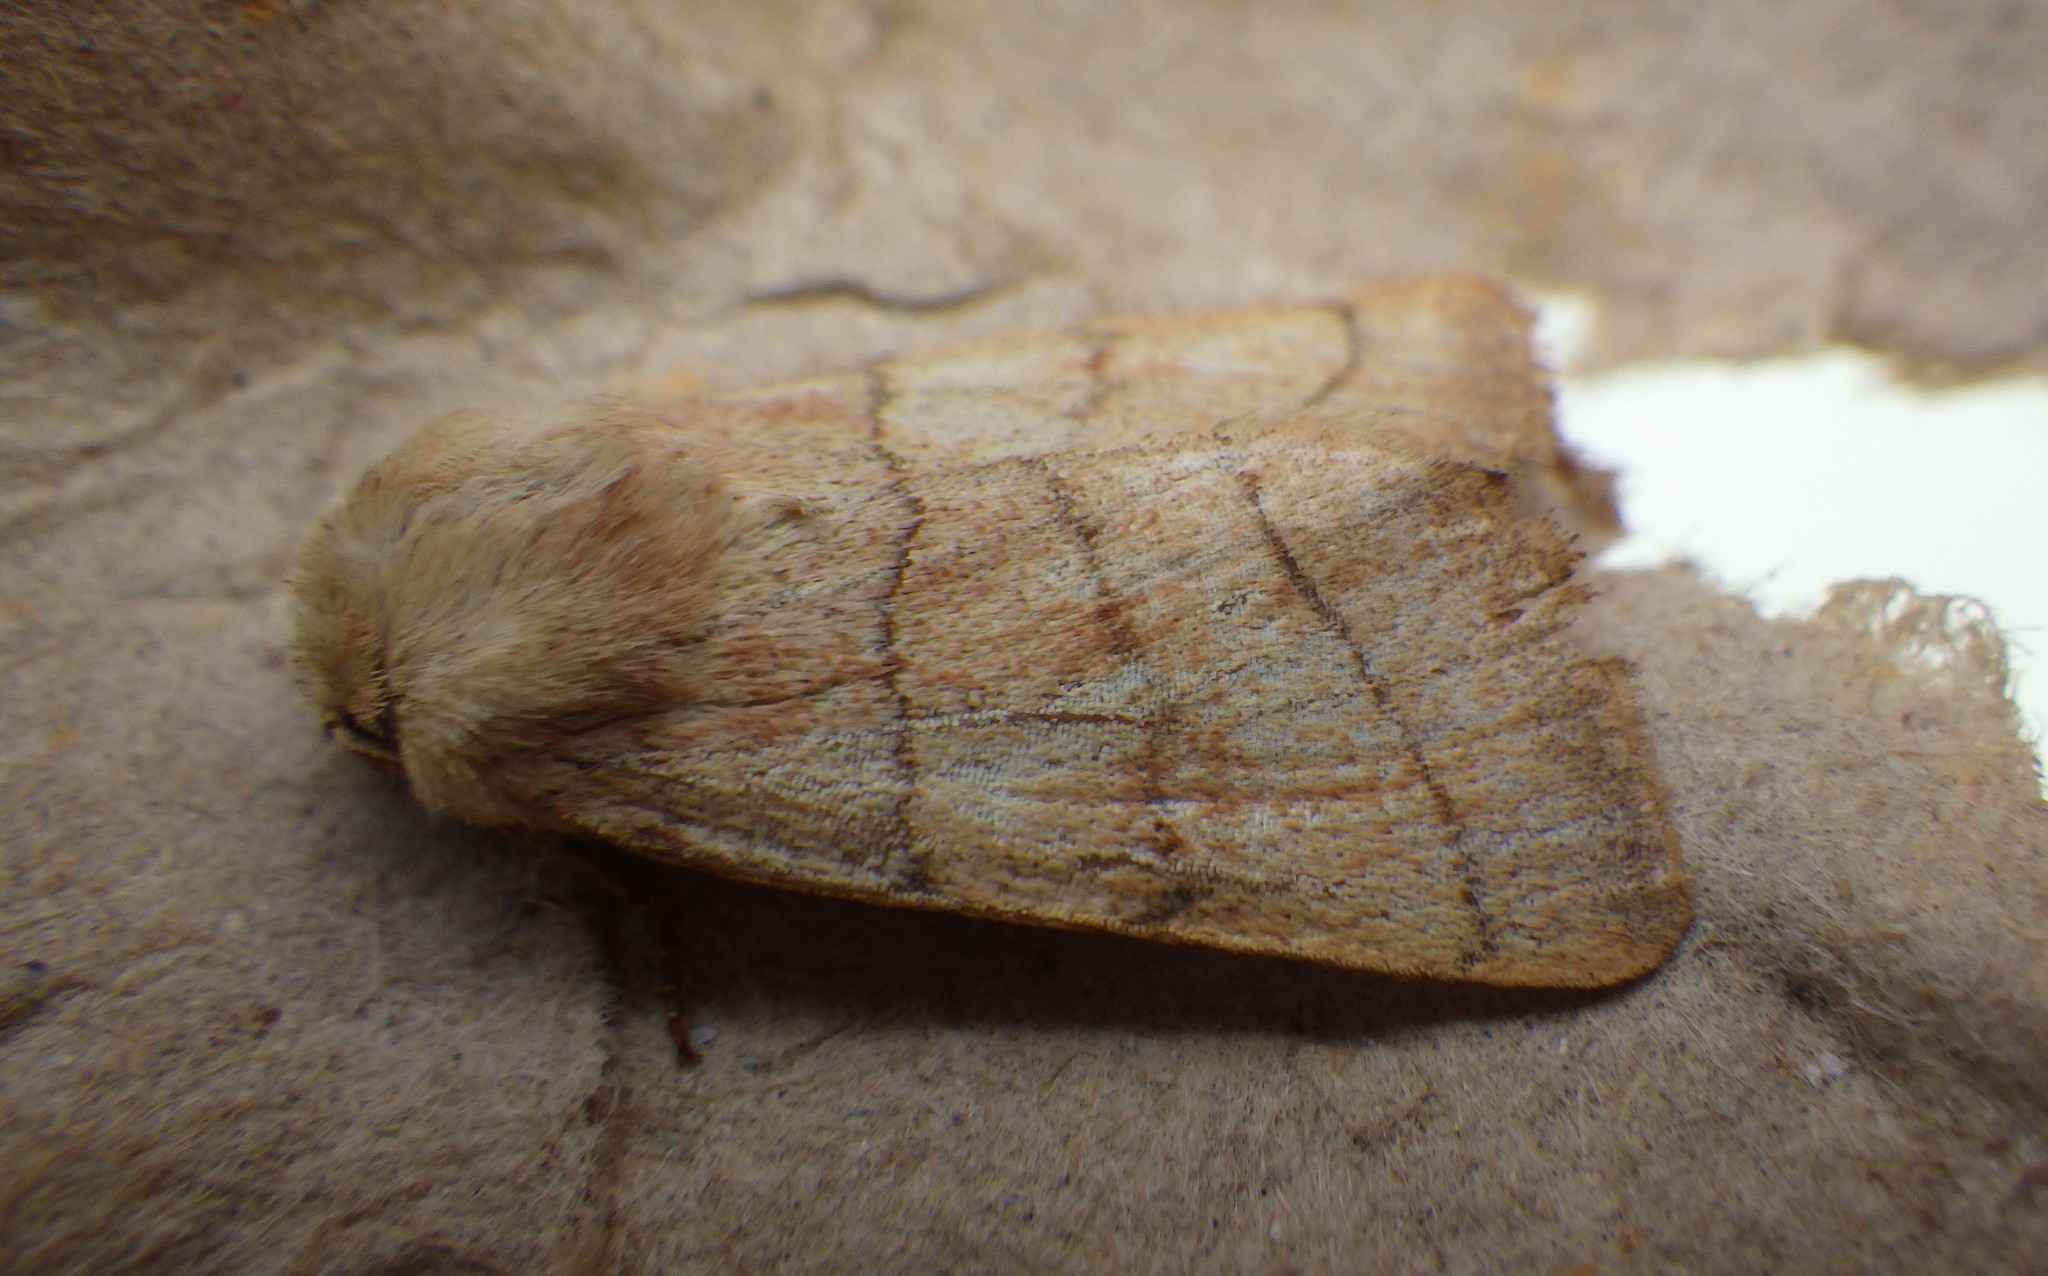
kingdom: Animalia
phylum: Arthropoda
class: Insecta
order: Lepidoptera
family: Noctuidae
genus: Charanyca
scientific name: Charanyca trigrammica
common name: Treble lines
